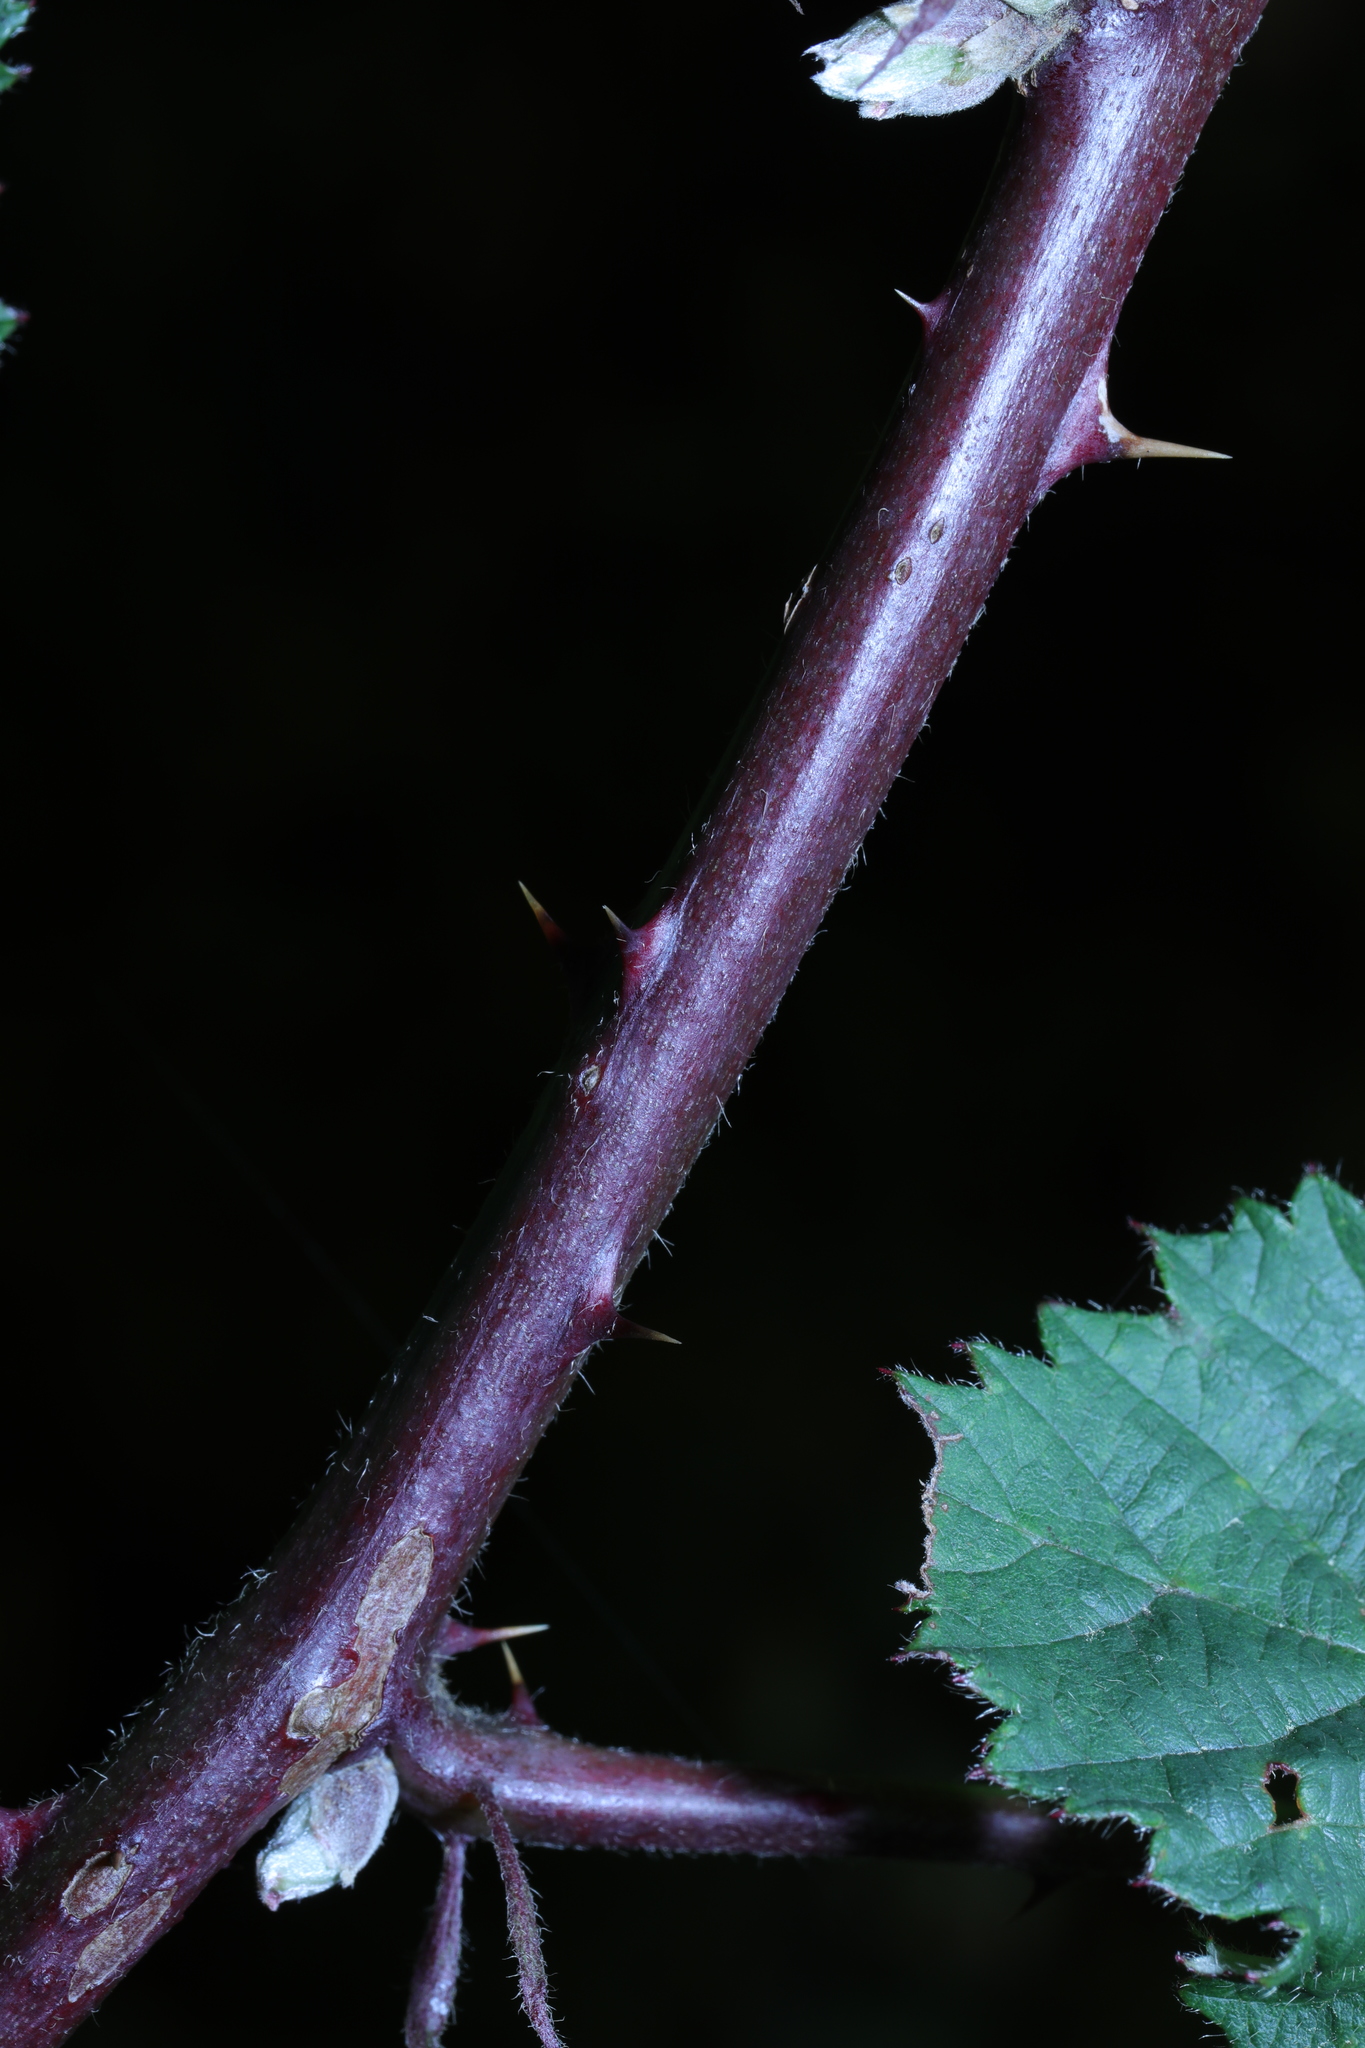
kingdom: Plantae
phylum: Tracheophyta
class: Magnoliopsida
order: Rosales
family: Rosaceae
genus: Rubus
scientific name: Rubus armeniacus
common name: Himalayan blackberry
